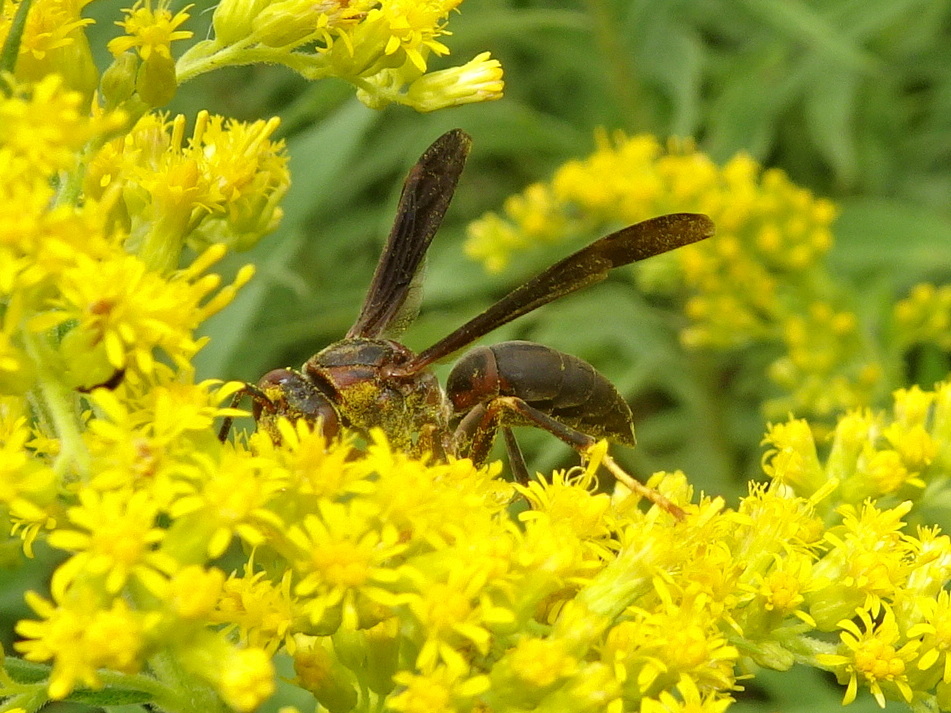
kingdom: Animalia
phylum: Arthropoda
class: Insecta
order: Hymenoptera
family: Eumenidae
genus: Polistes
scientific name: Polistes metricus
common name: Metric paper wasp
